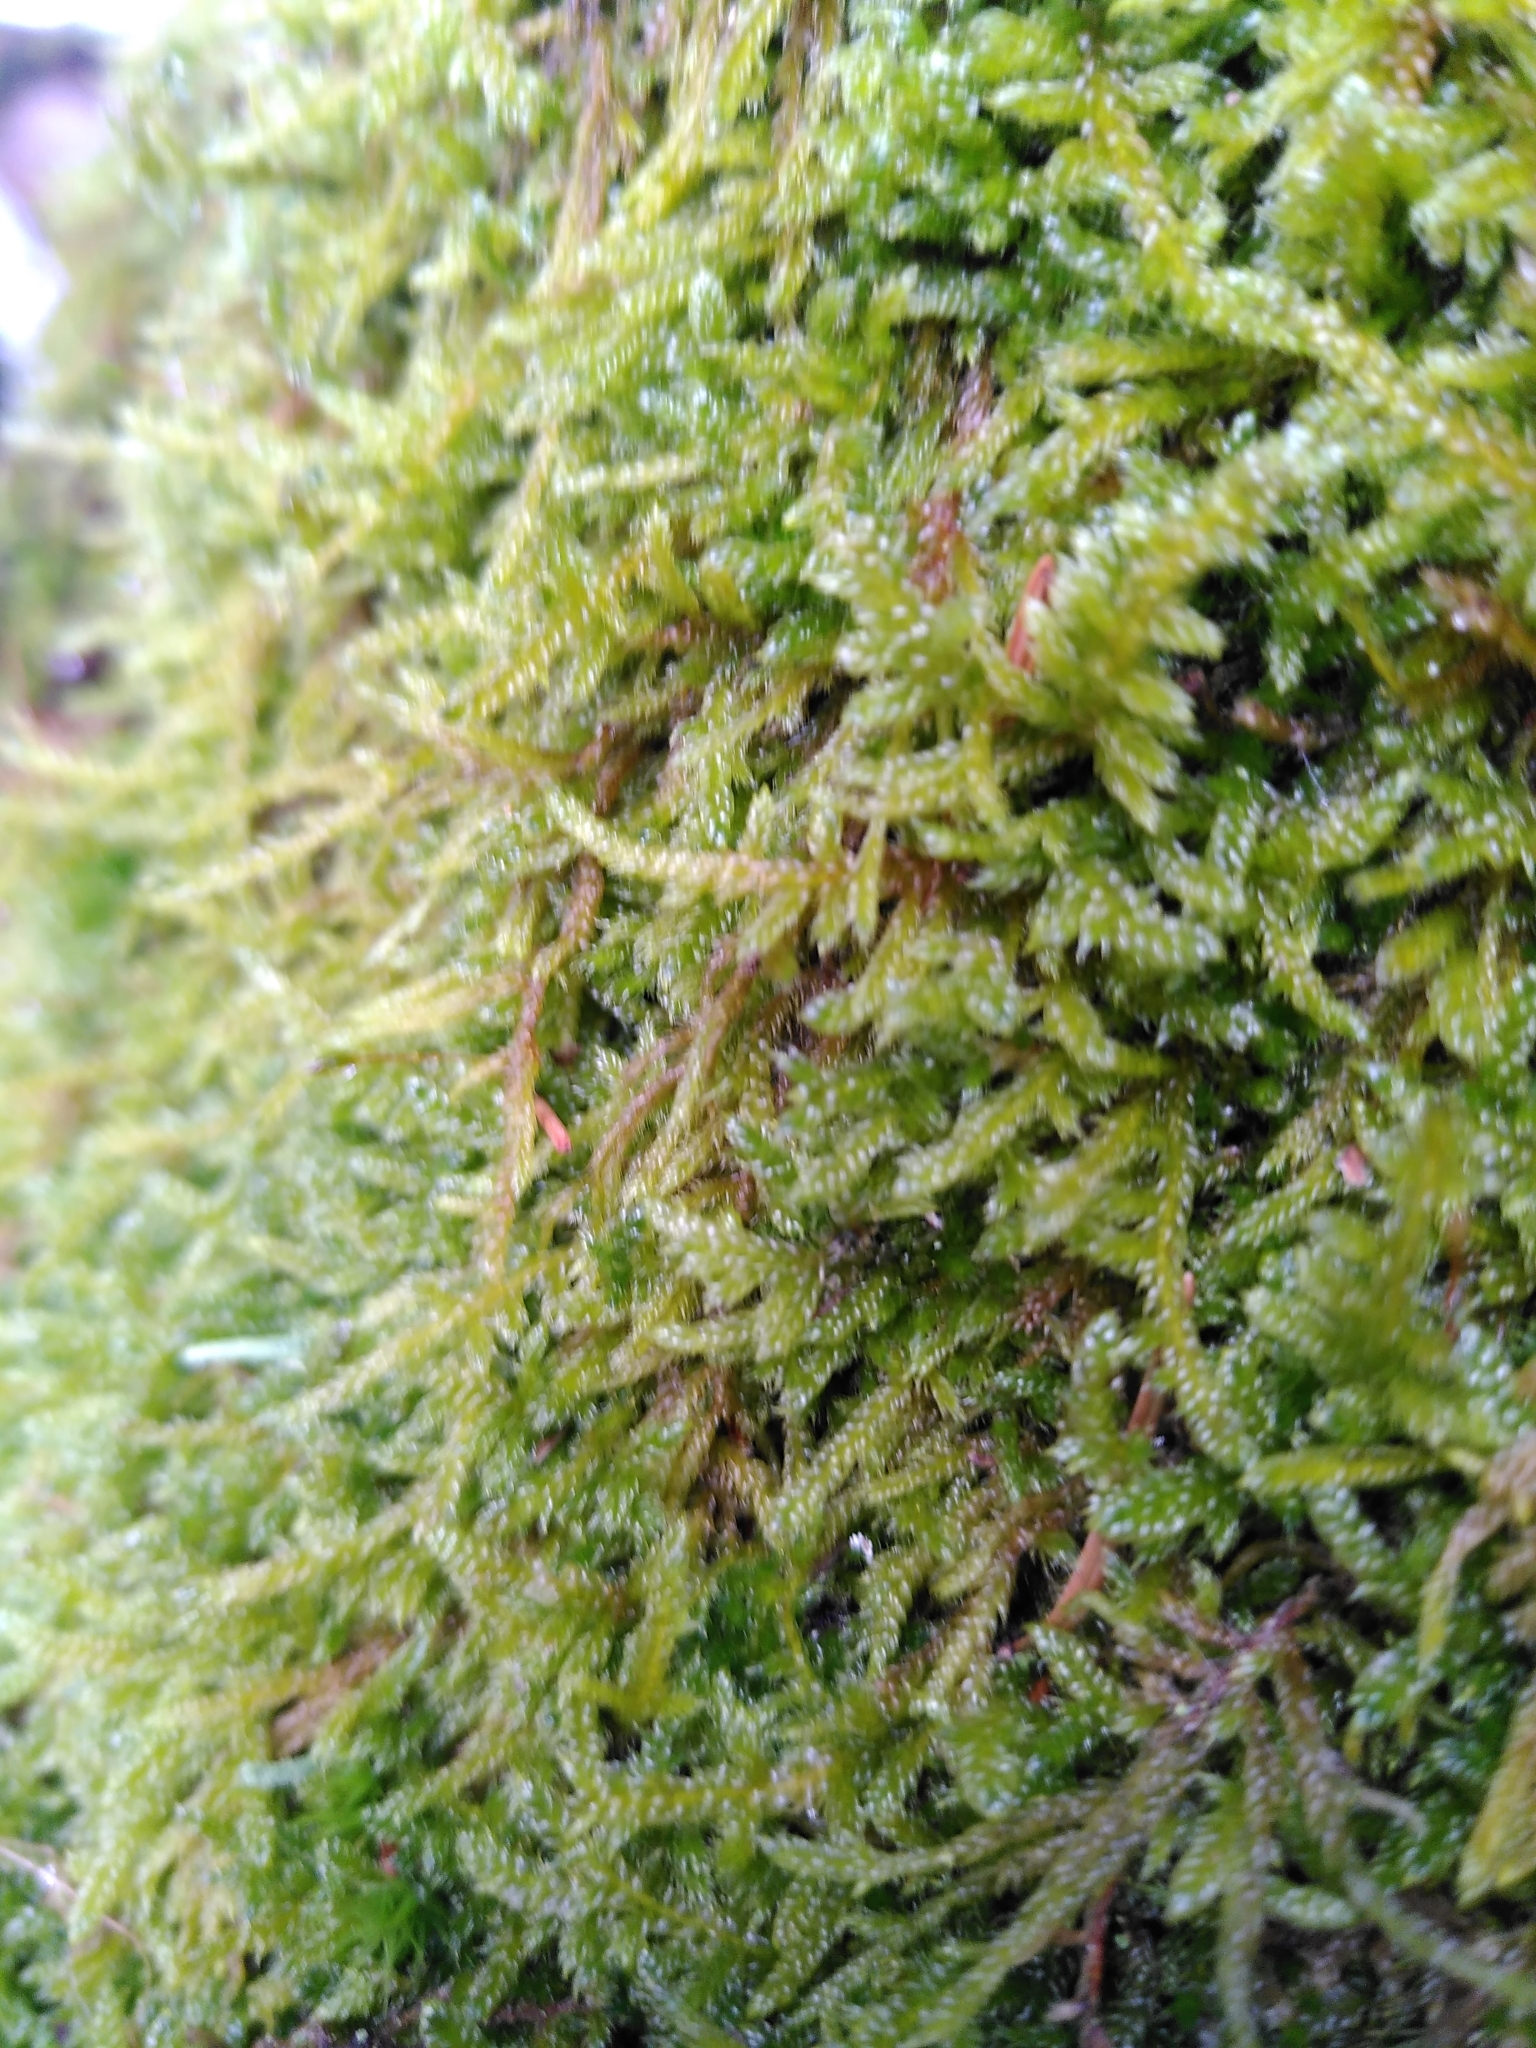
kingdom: Plantae
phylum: Bryophyta
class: Bryopsida
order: Hypnales
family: Hypnaceae
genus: Hypnum
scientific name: Hypnum cupressiforme
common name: Cypress-leaved plait-moss
